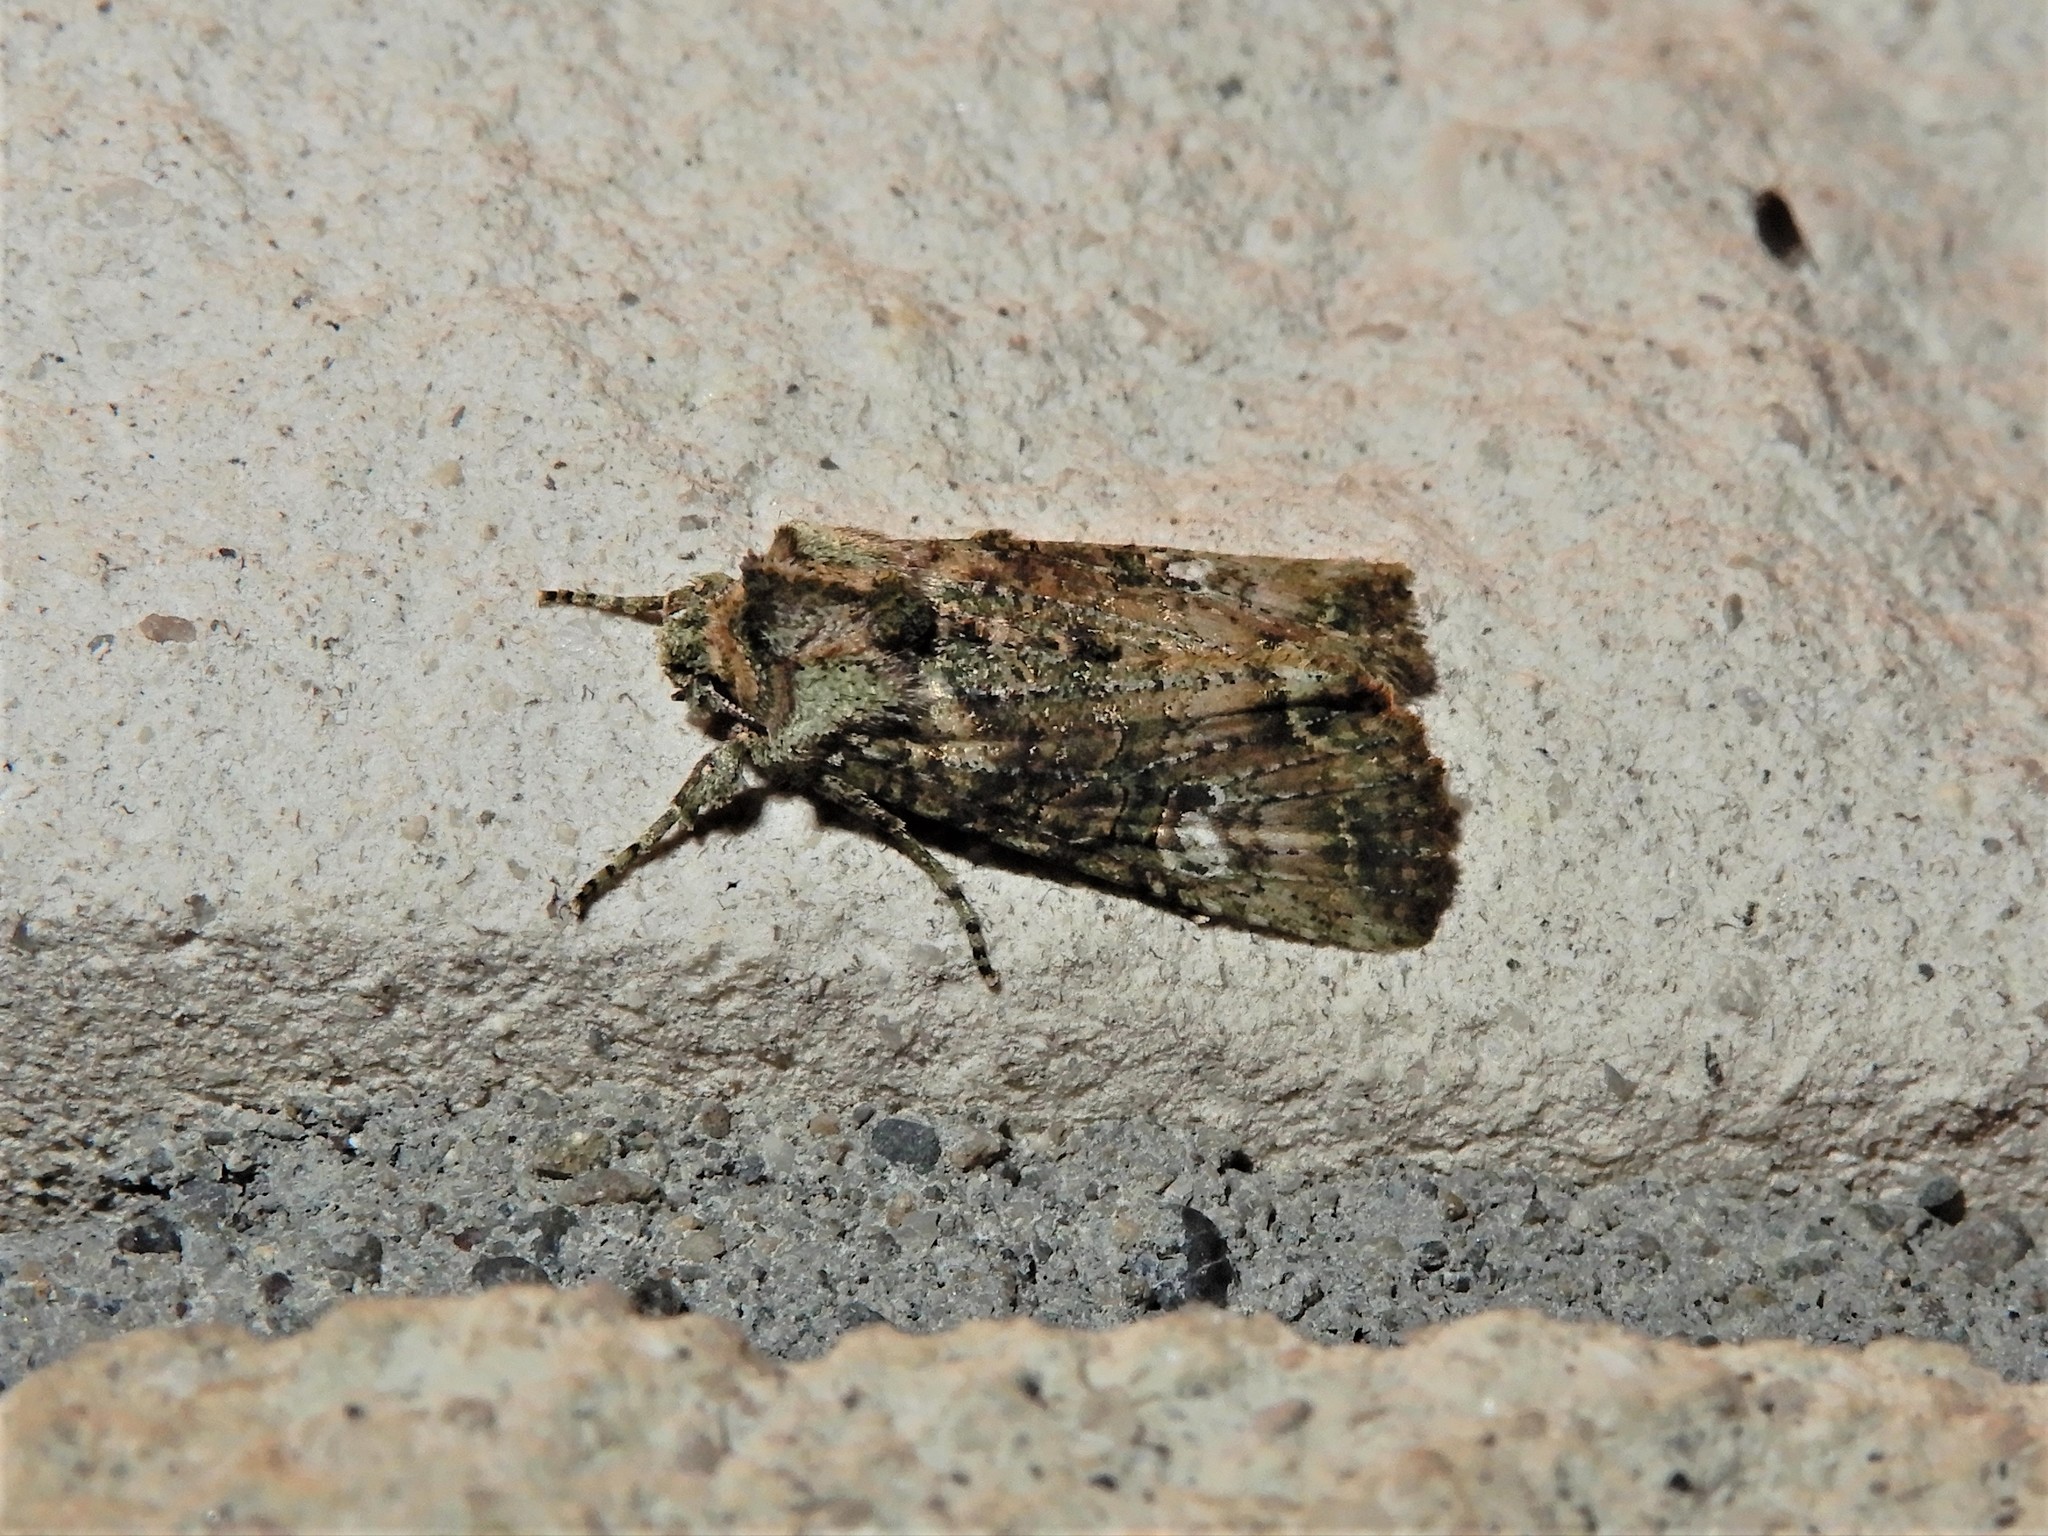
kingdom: Animalia
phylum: Arthropoda
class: Insecta
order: Lepidoptera
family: Noctuidae
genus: Meterana
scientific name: Meterana levis
